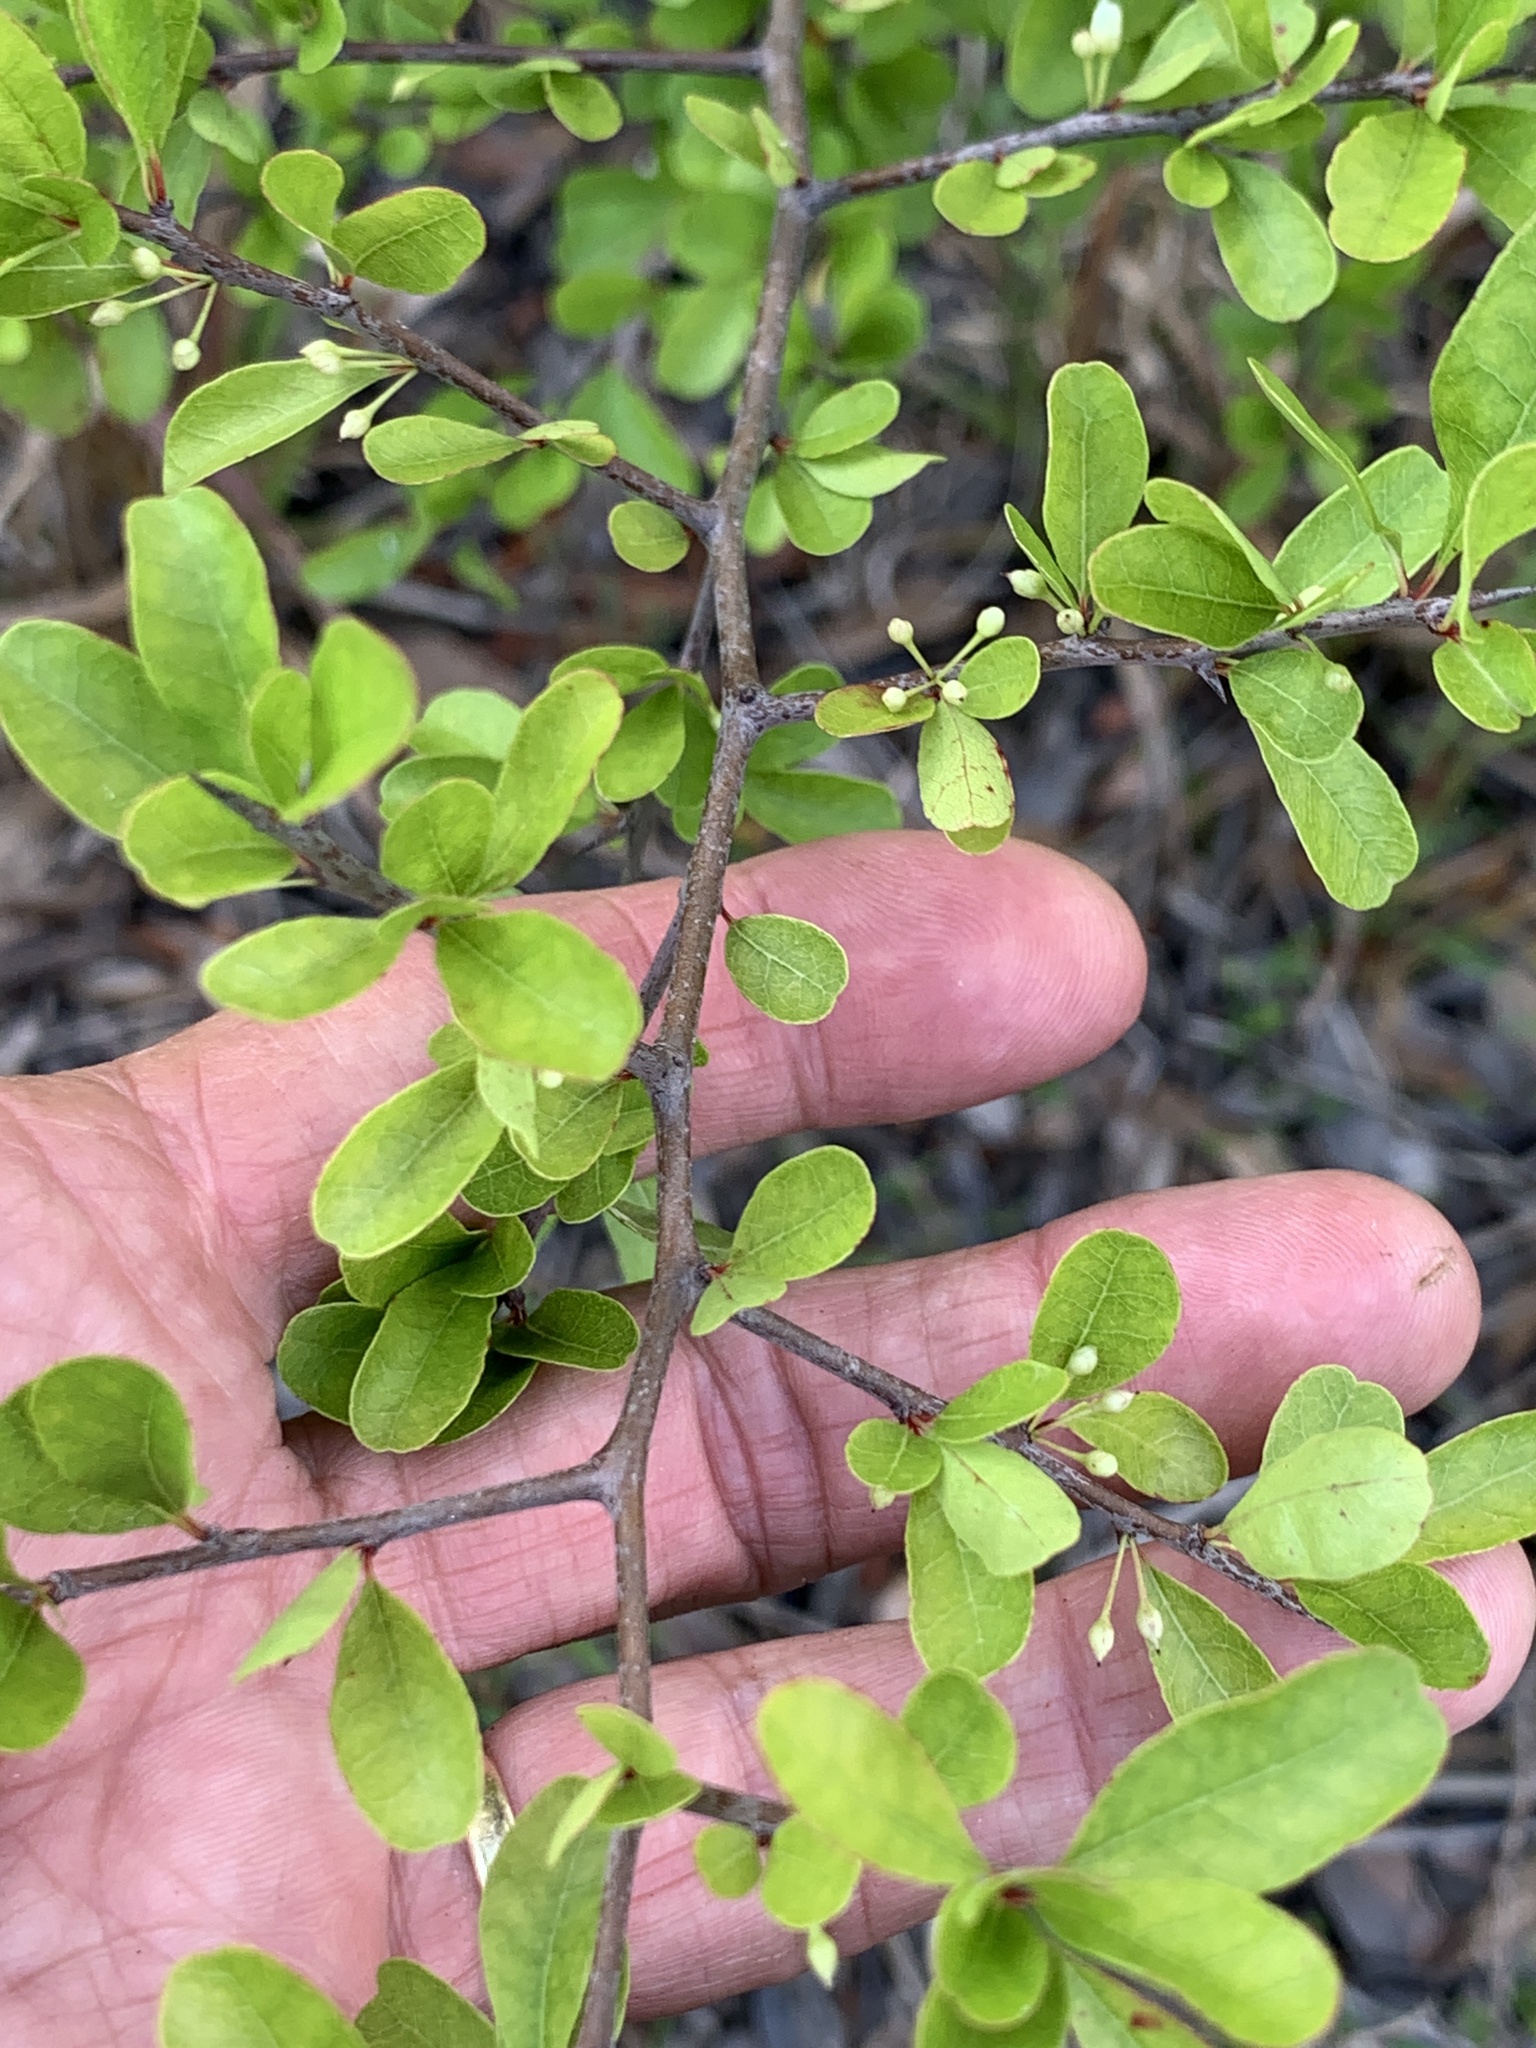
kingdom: Plantae
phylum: Tracheophyta
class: Magnoliopsida
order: Ericales
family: Sapotaceae
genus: Sideroxylon
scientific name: Sideroxylon reclinatum
